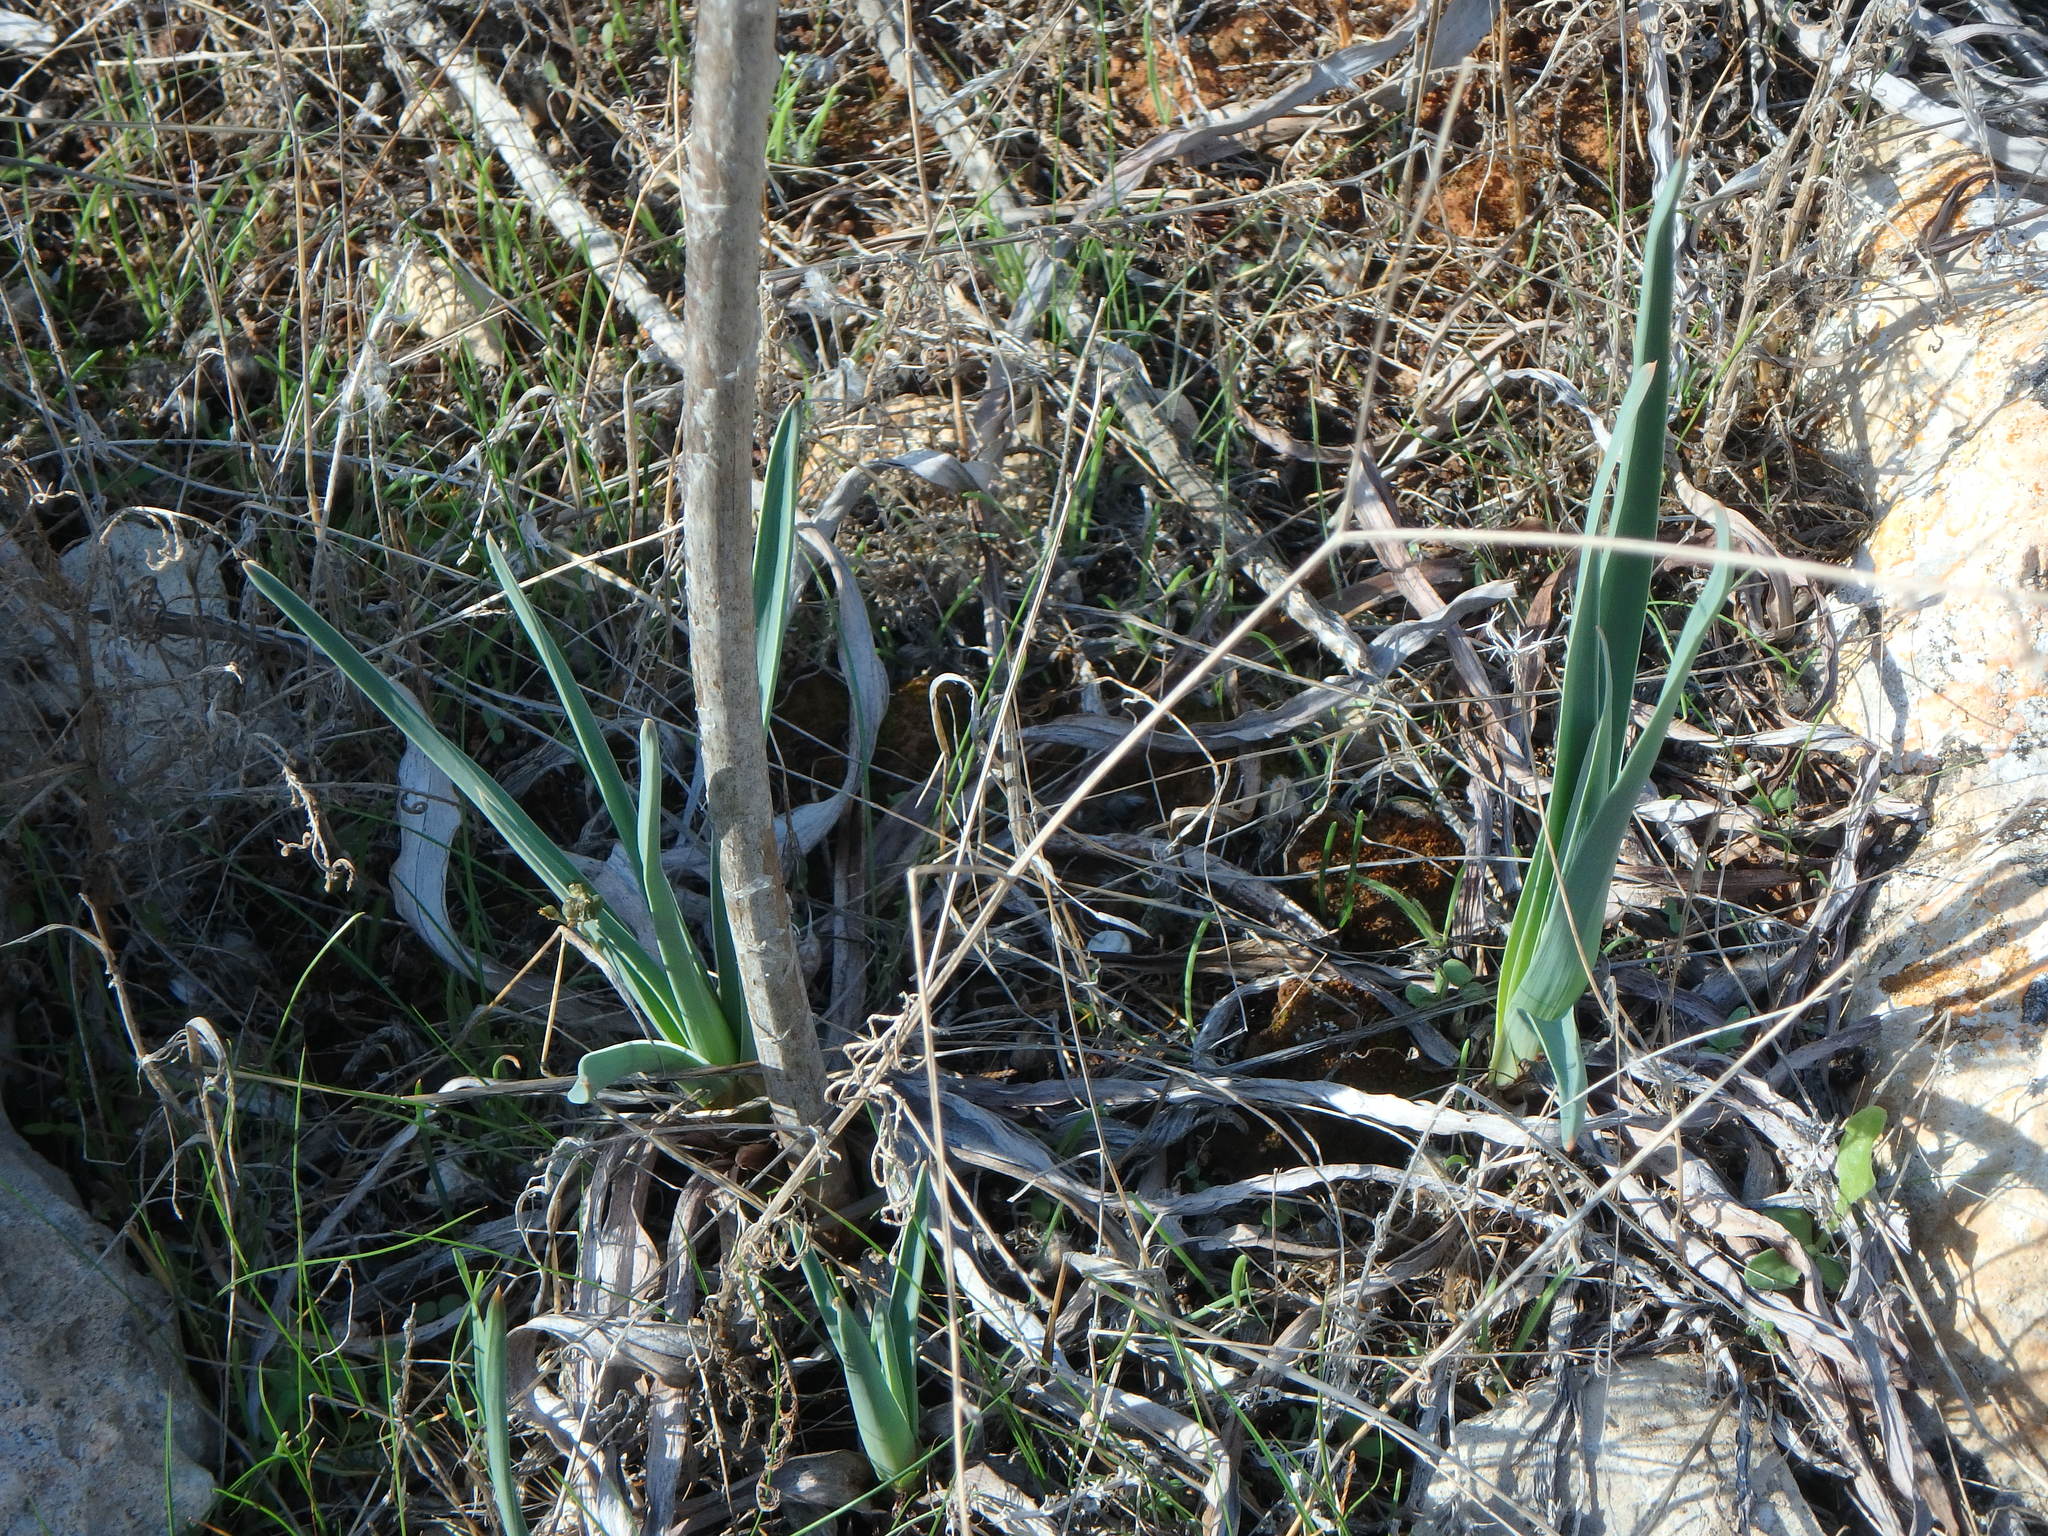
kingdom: Plantae
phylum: Tracheophyta
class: Liliopsida
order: Asparagales
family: Asphodelaceae
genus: Asphodelus
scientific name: Asphodelus ramosus
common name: Silverrod
